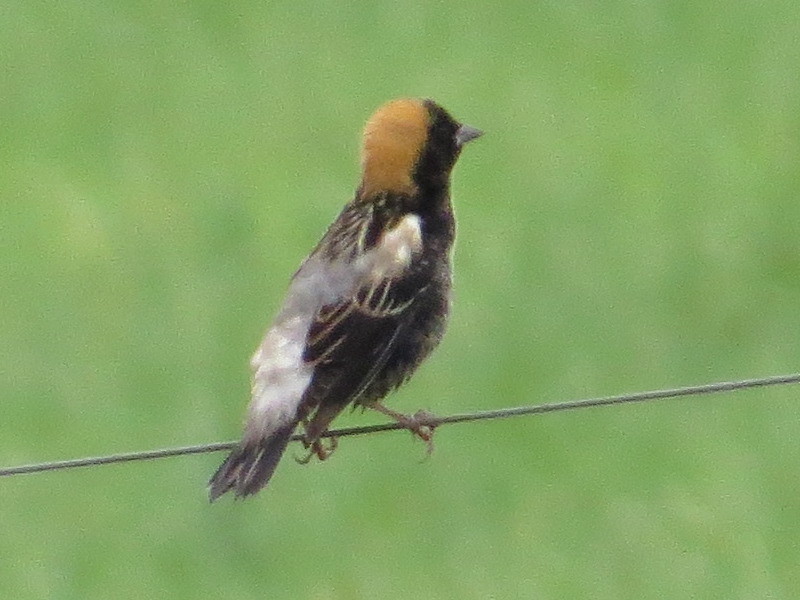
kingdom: Animalia
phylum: Chordata
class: Aves
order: Passeriformes
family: Icteridae
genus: Dolichonyx
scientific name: Dolichonyx oryzivorus
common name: Bobolink
